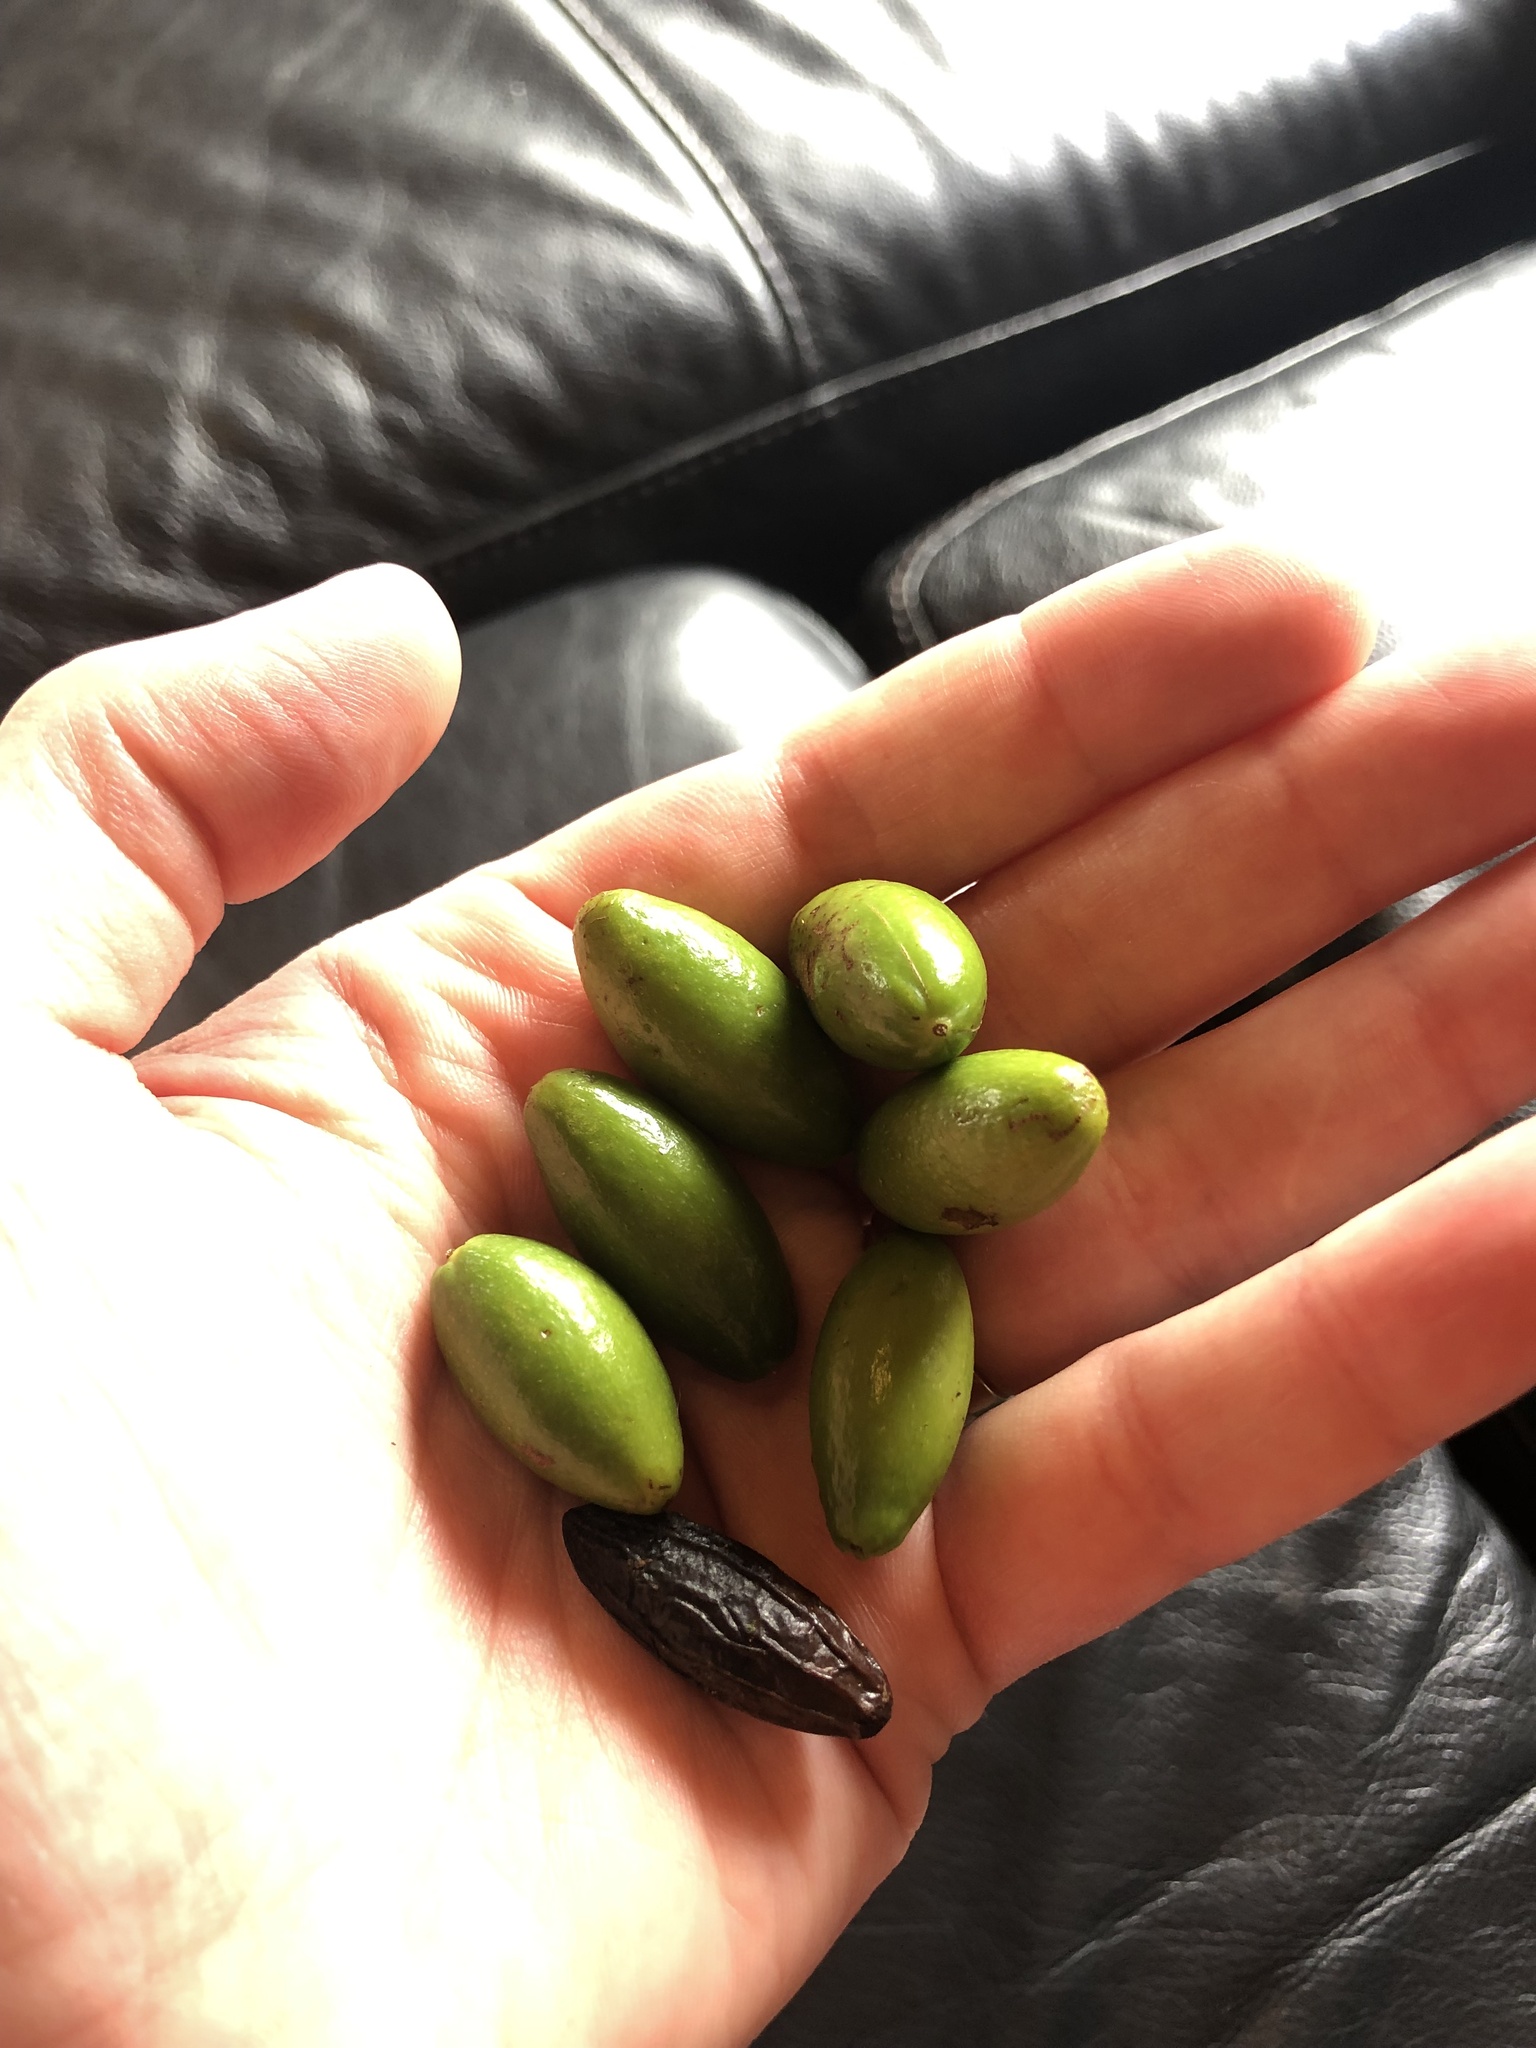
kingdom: Plantae
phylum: Tracheophyta
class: Magnoliopsida
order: Laurales
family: Lauraceae
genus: Beilschmiedia
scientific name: Beilschmiedia tawa
